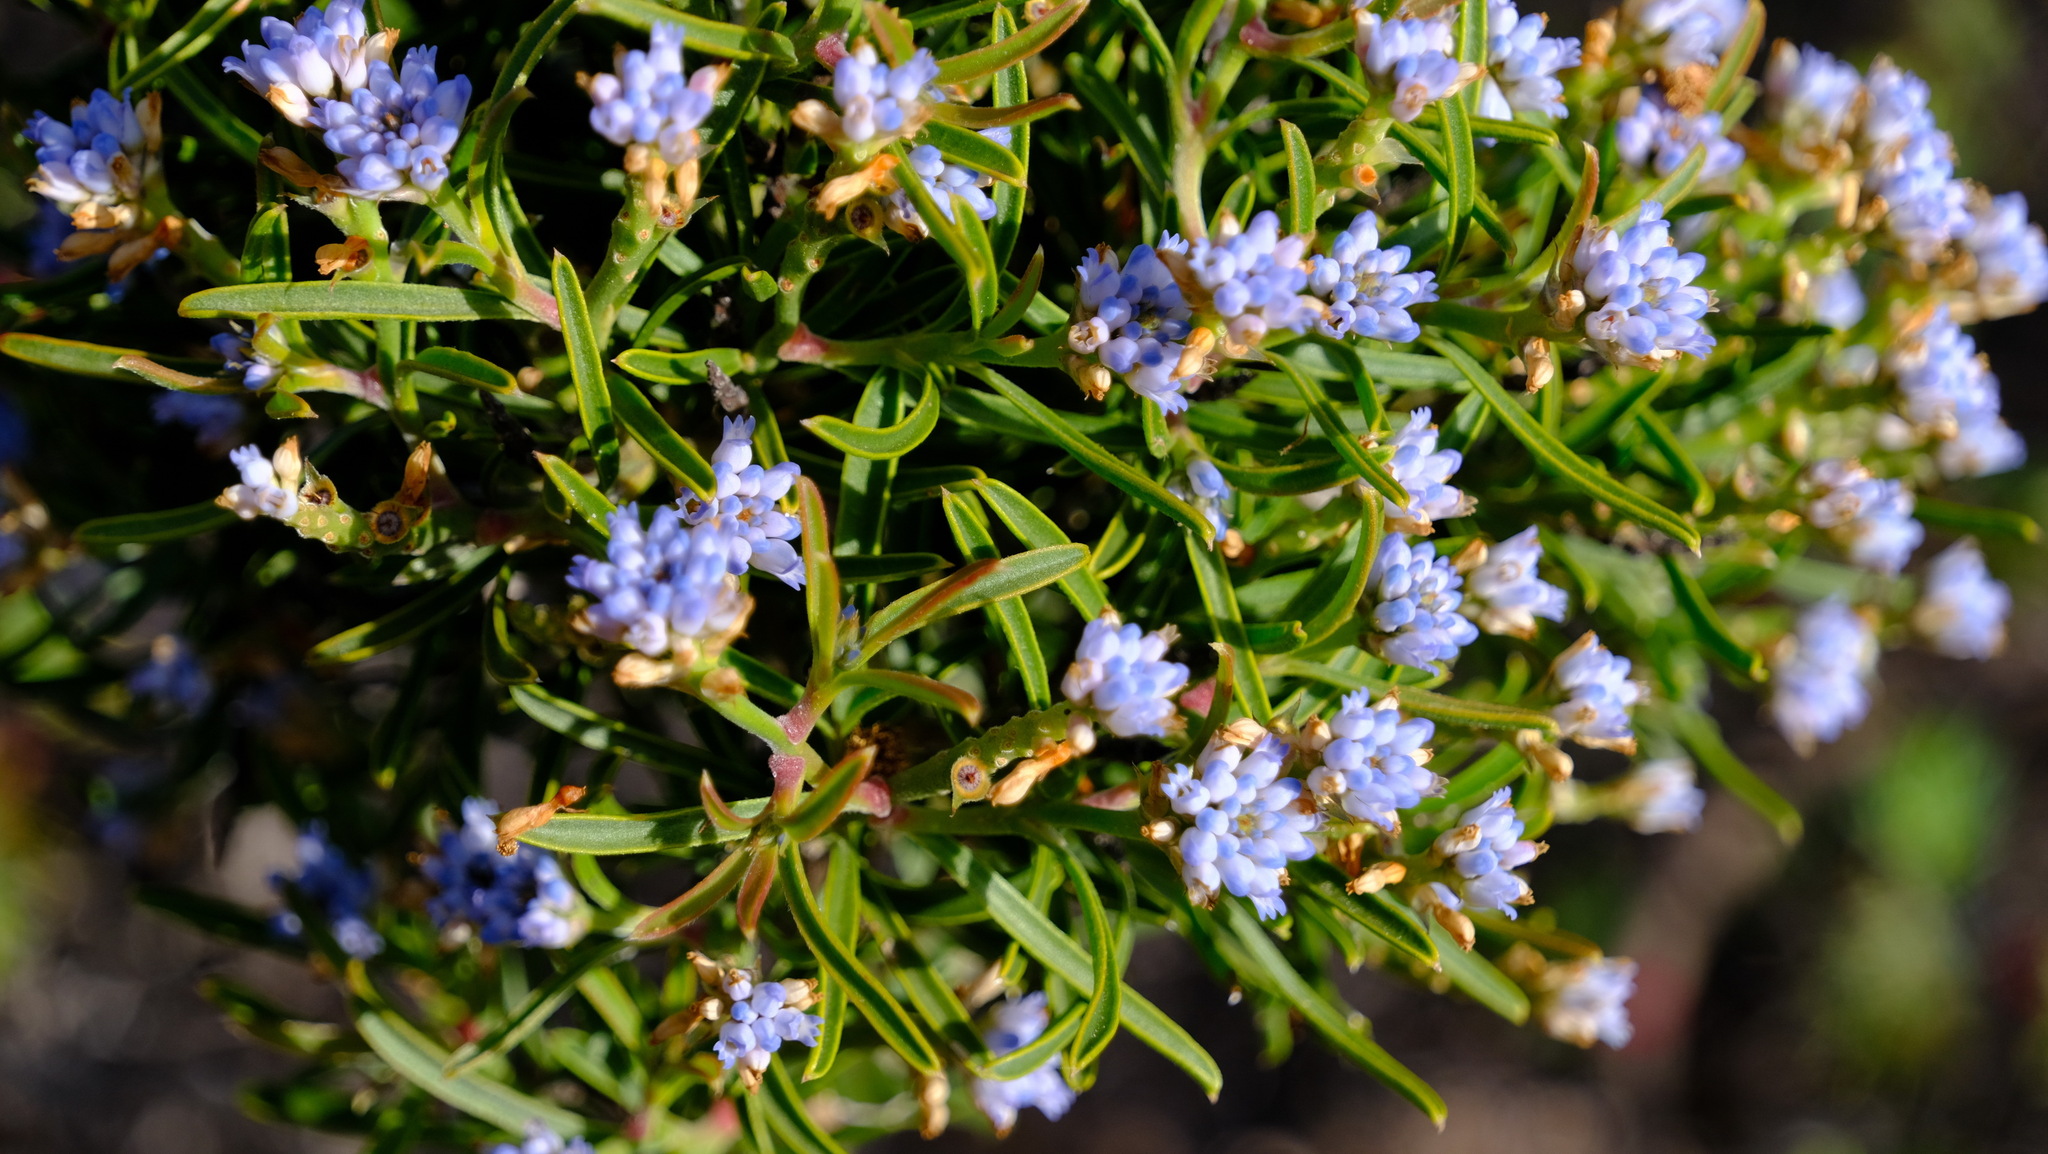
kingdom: Plantae
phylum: Tracheophyta
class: Magnoliopsida
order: Proteales
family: Proteaceae
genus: Conospermum
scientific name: Conospermum nervosum
